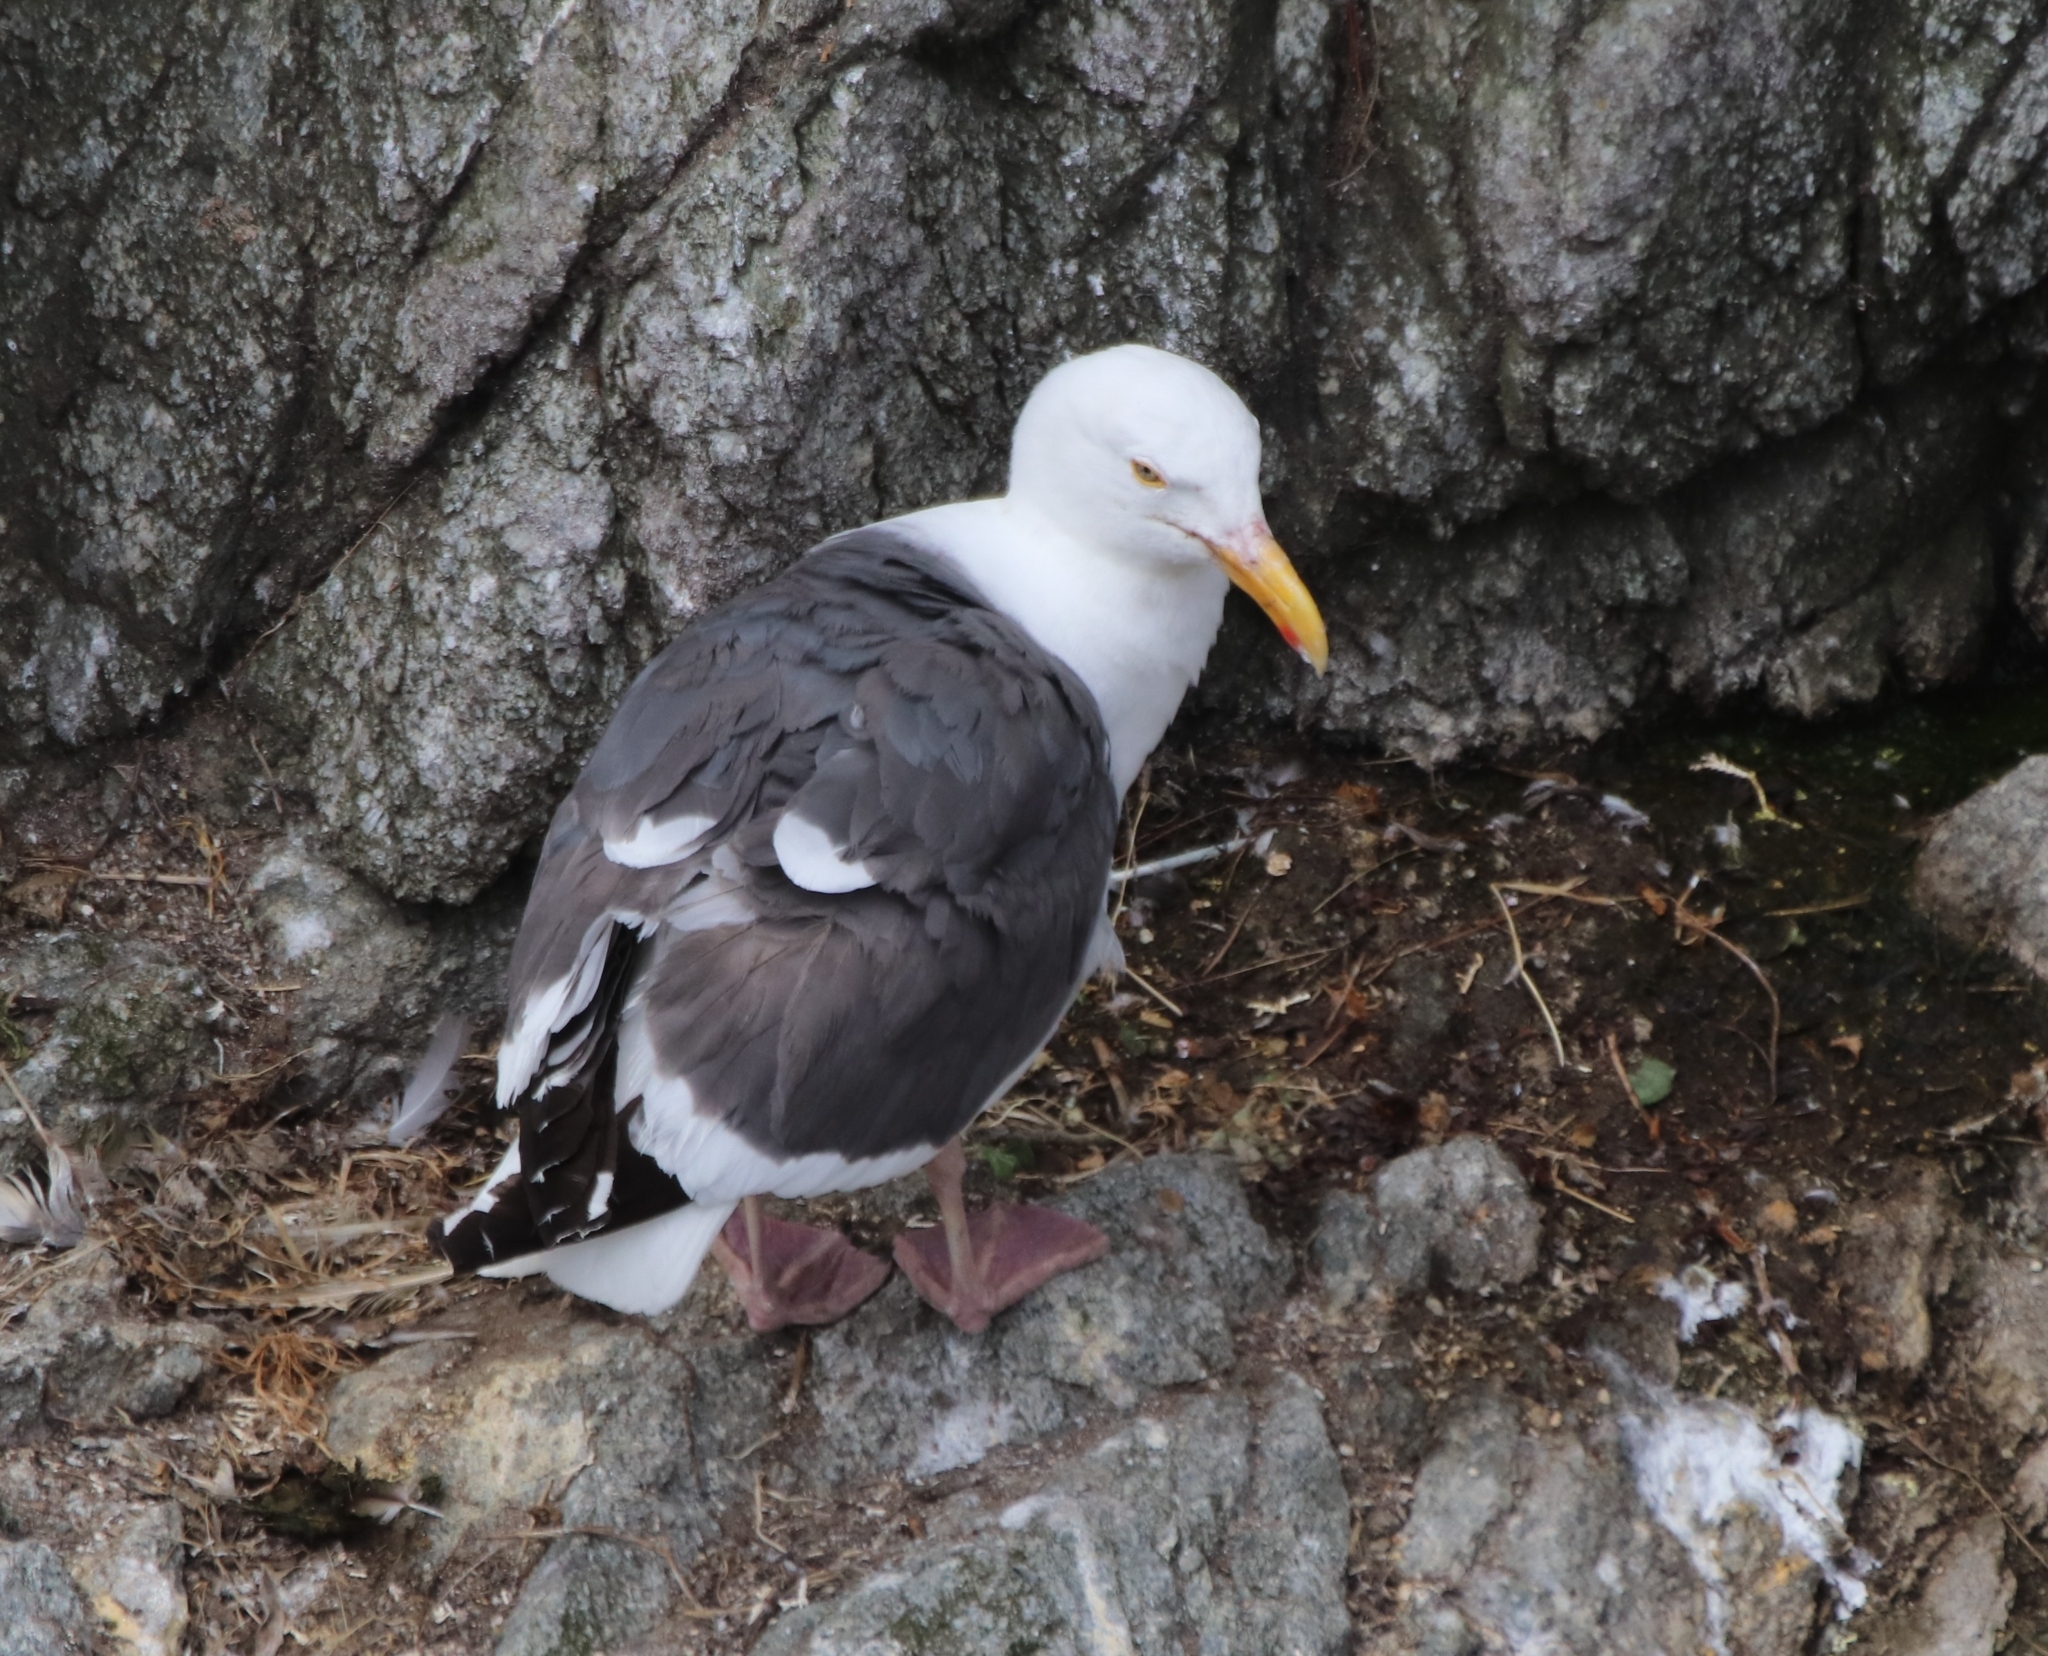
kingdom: Animalia
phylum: Chordata
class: Aves
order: Charadriiformes
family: Laridae
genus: Larus
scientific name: Larus occidentalis
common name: Western gull
